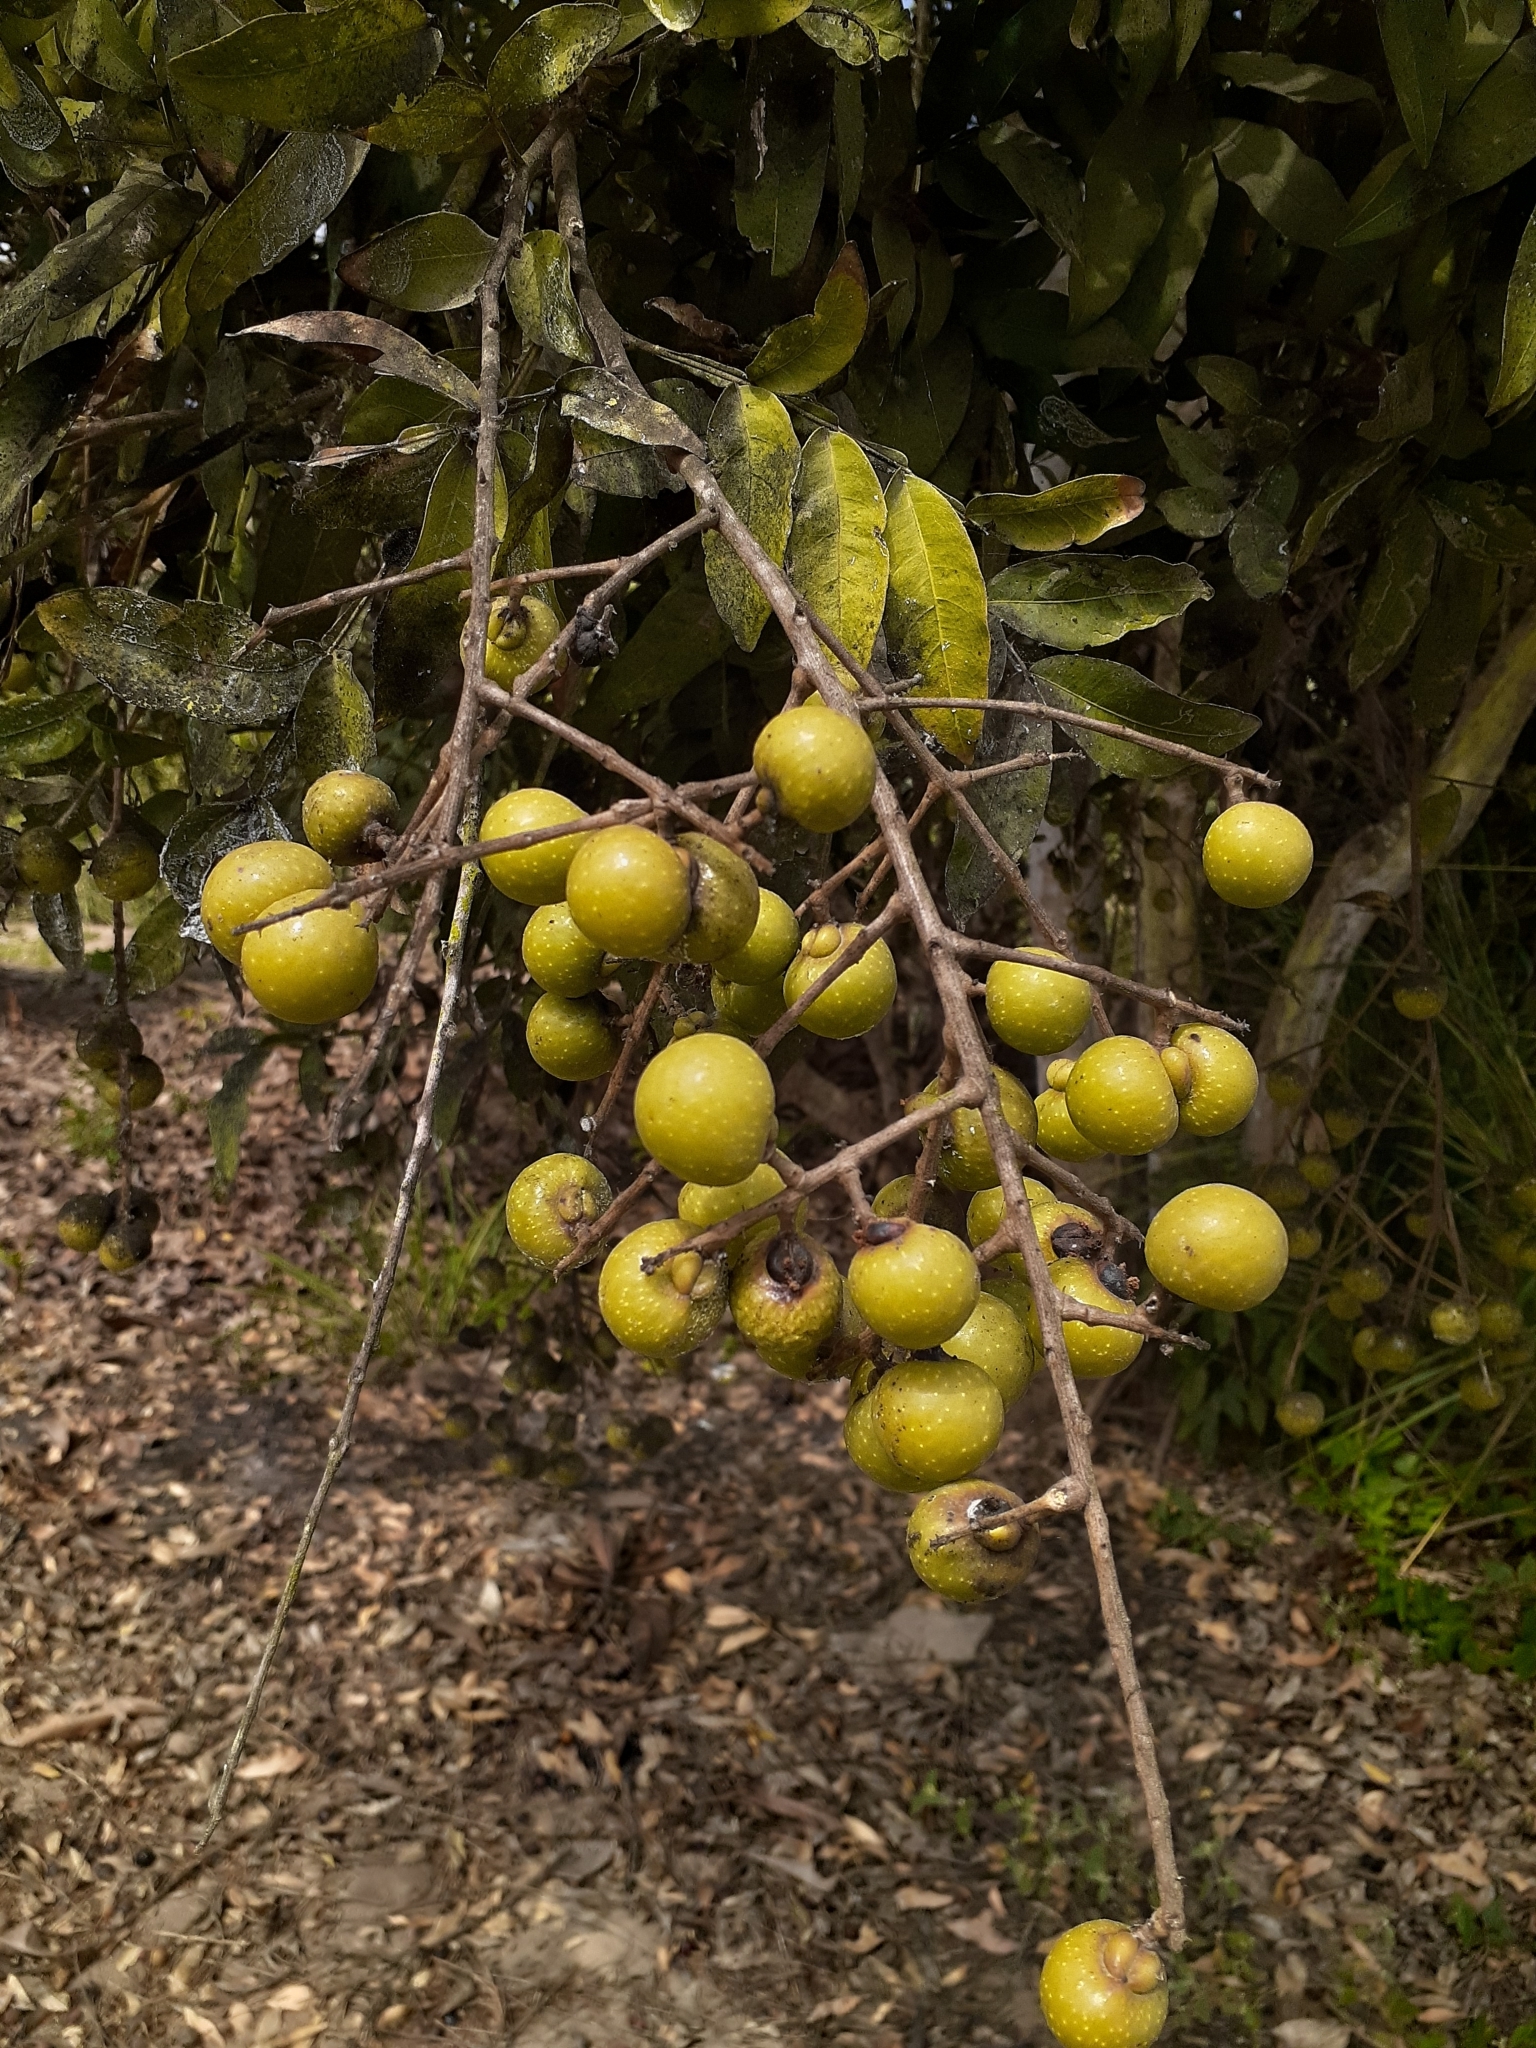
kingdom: Plantae
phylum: Tracheophyta
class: Magnoliopsida
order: Sapindales
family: Sapindaceae
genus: Sapindus
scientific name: Sapindus saponaria
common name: Wingleaf soapberry
